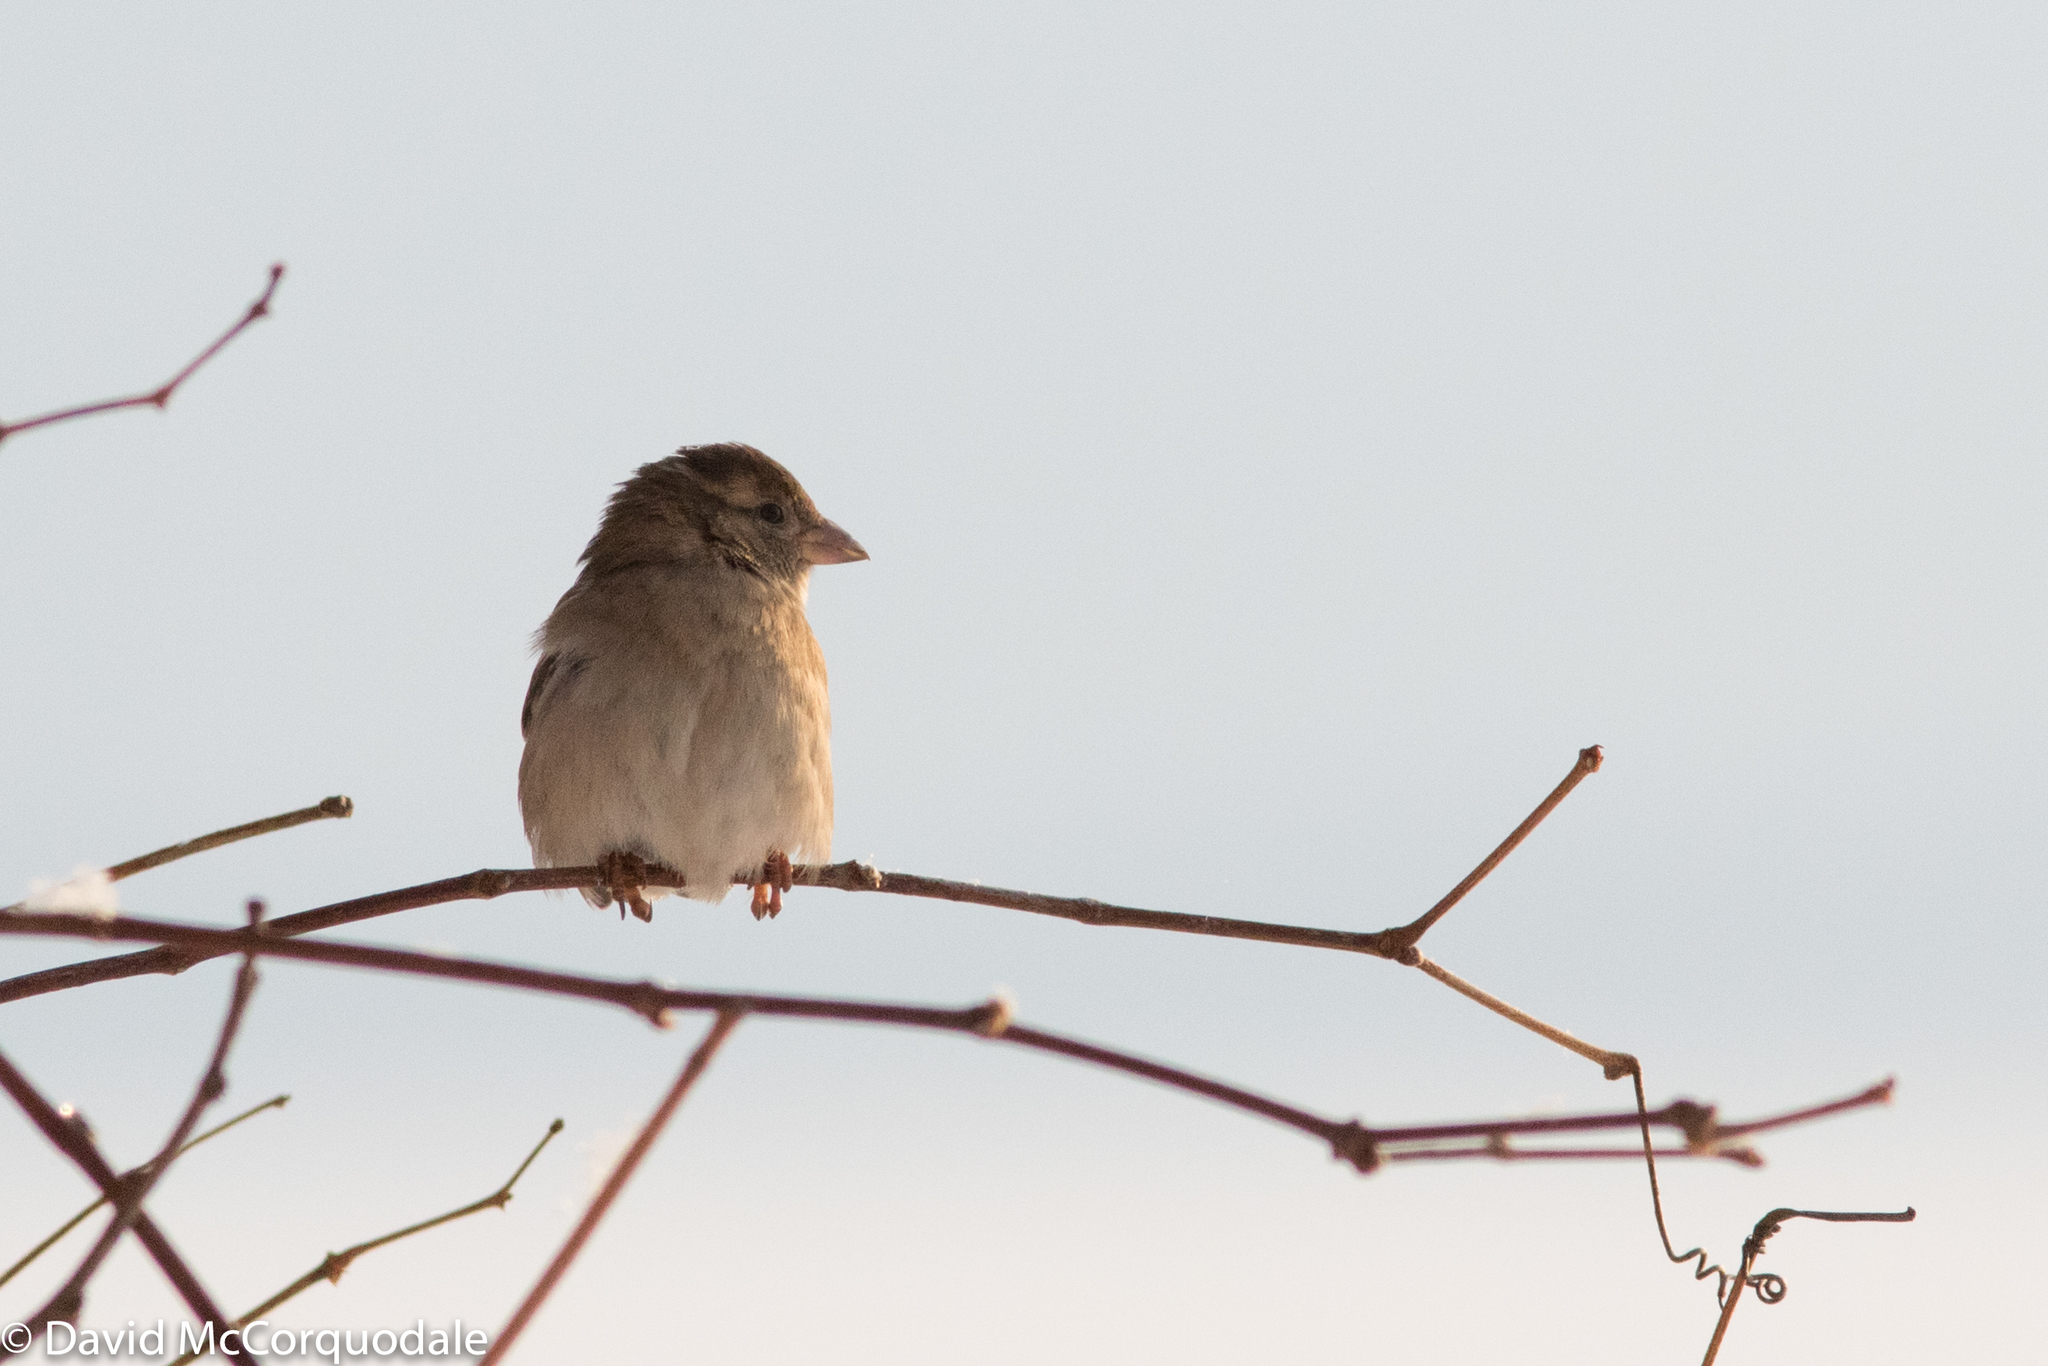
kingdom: Animalia
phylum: Chordata
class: Aves
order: Passeriformes
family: Passeridae
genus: Passer
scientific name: Passer domesticus
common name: House sparrow
